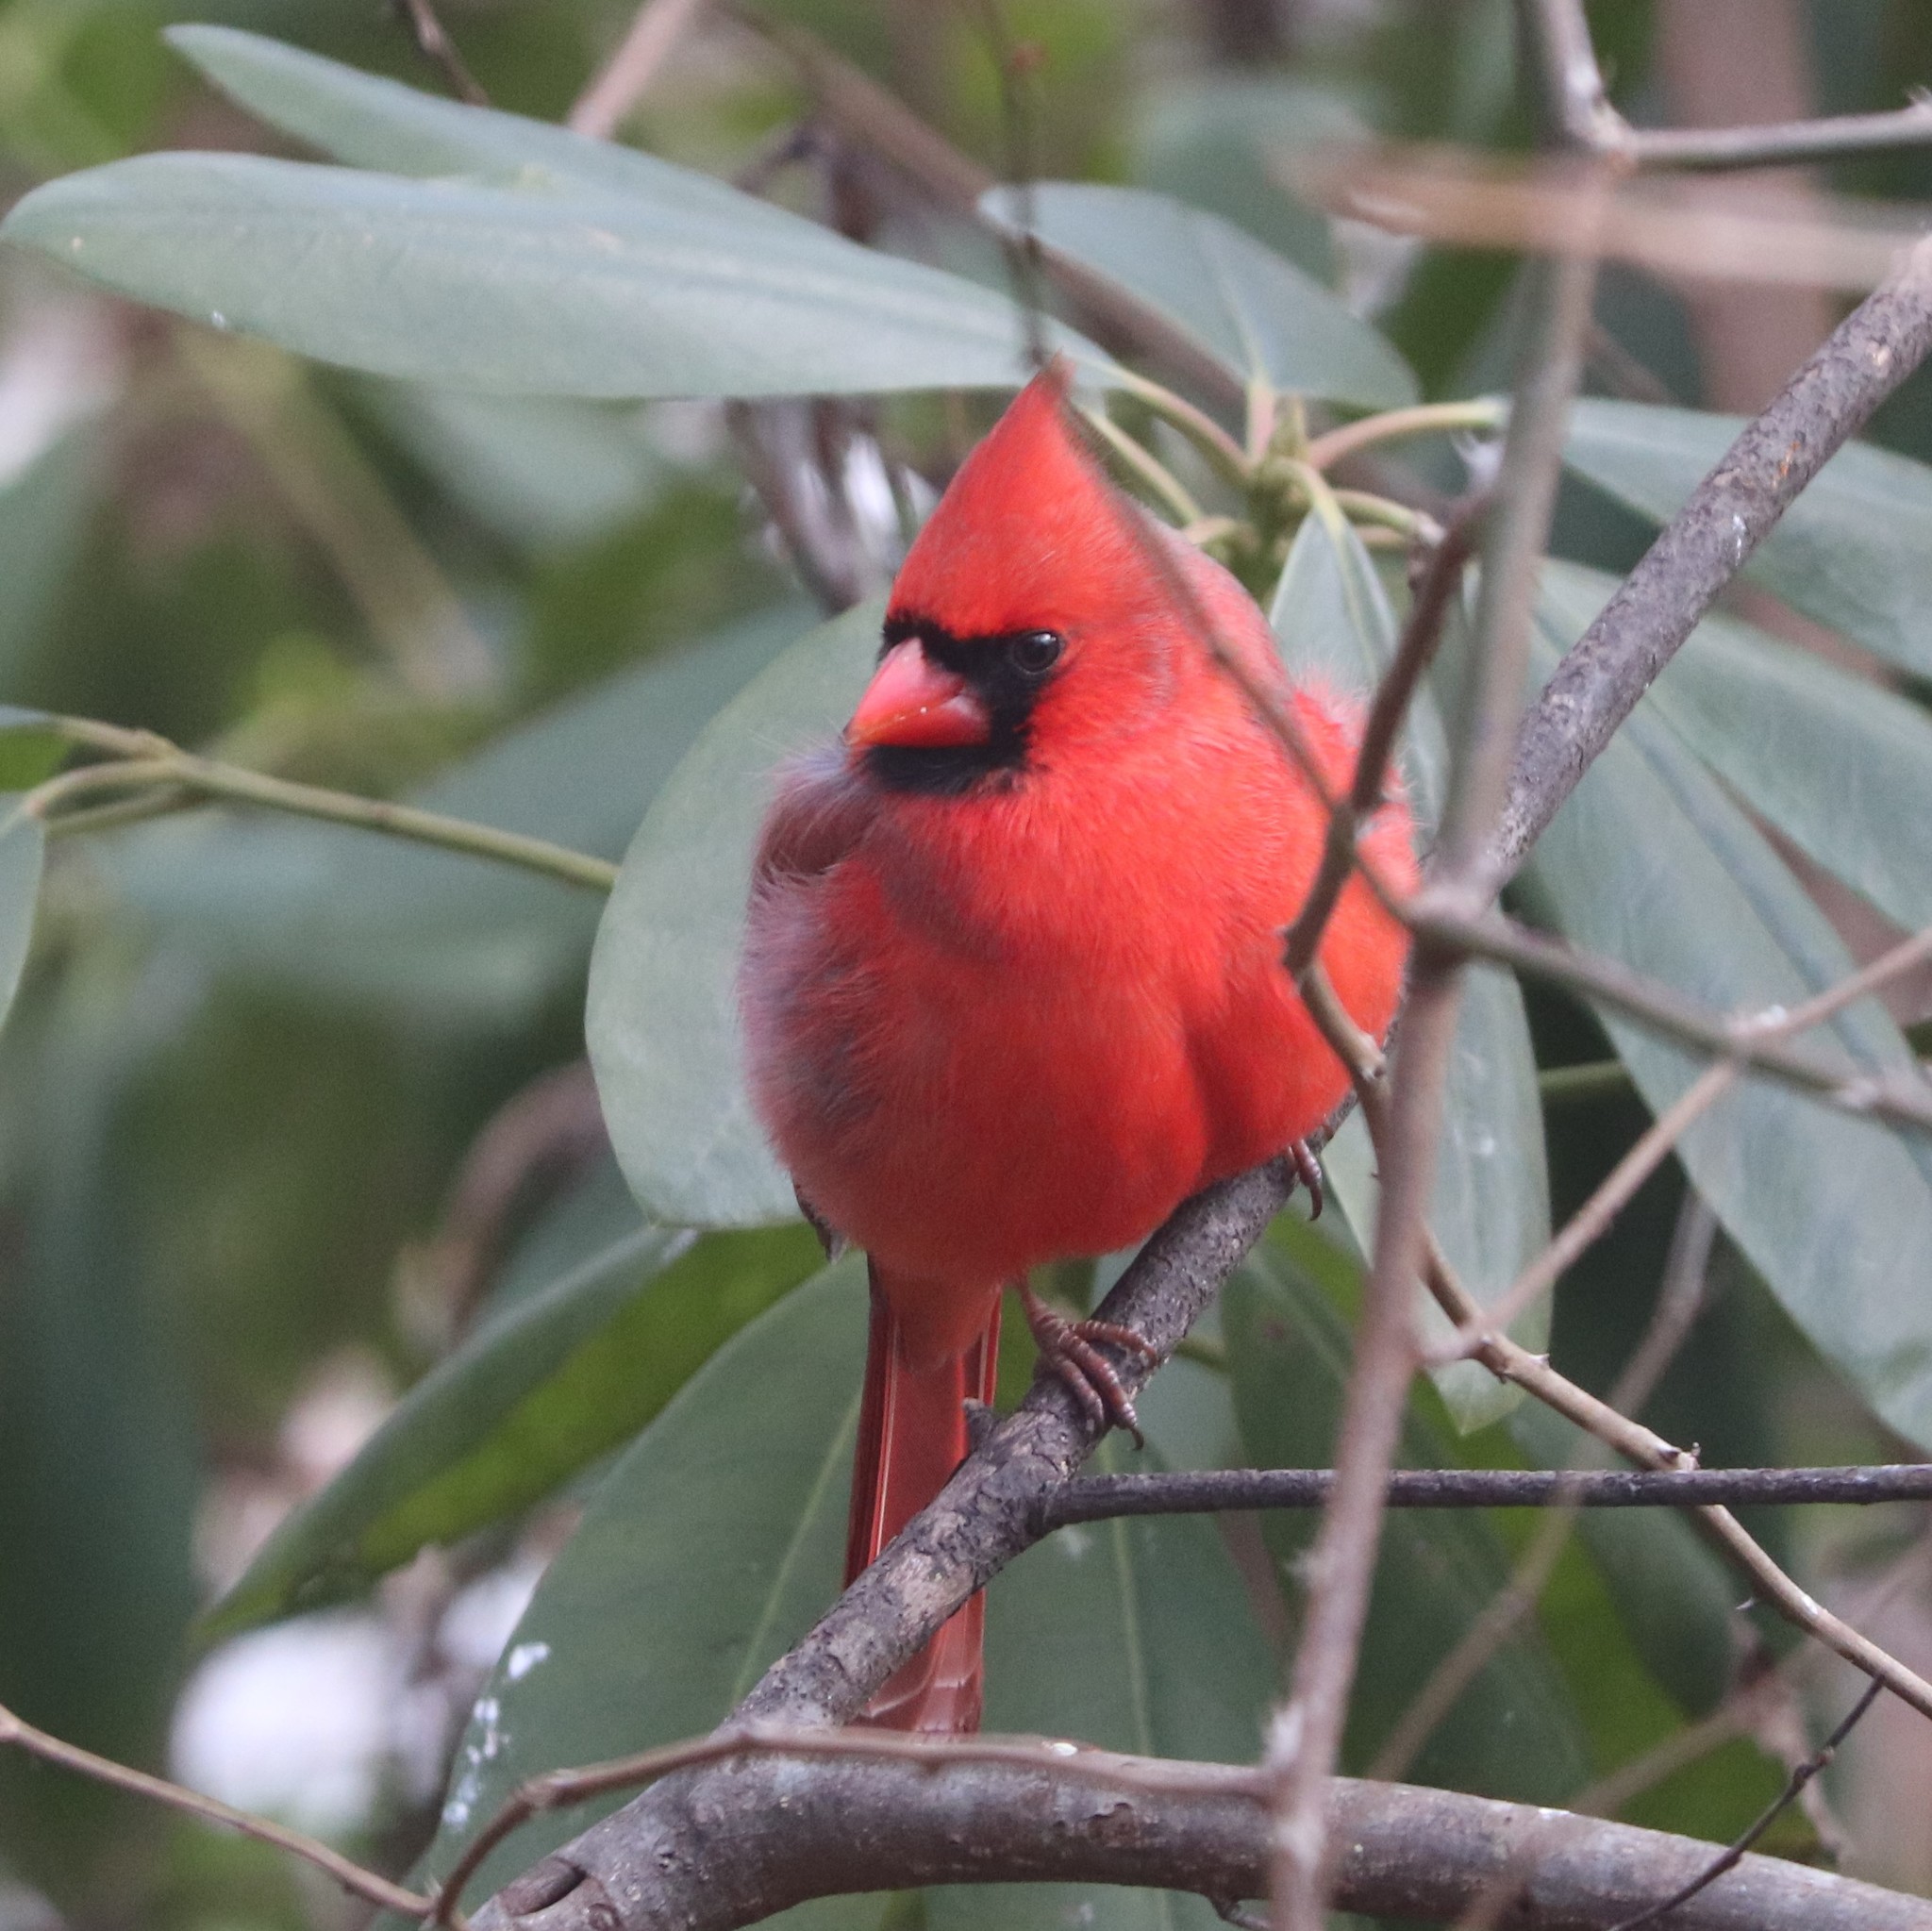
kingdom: Animalia
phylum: Chordata
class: Aves
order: Passeriformes
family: Cardinalidae
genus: Cardinalis
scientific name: Cardinalis cardinalis
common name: Northern cardinal
